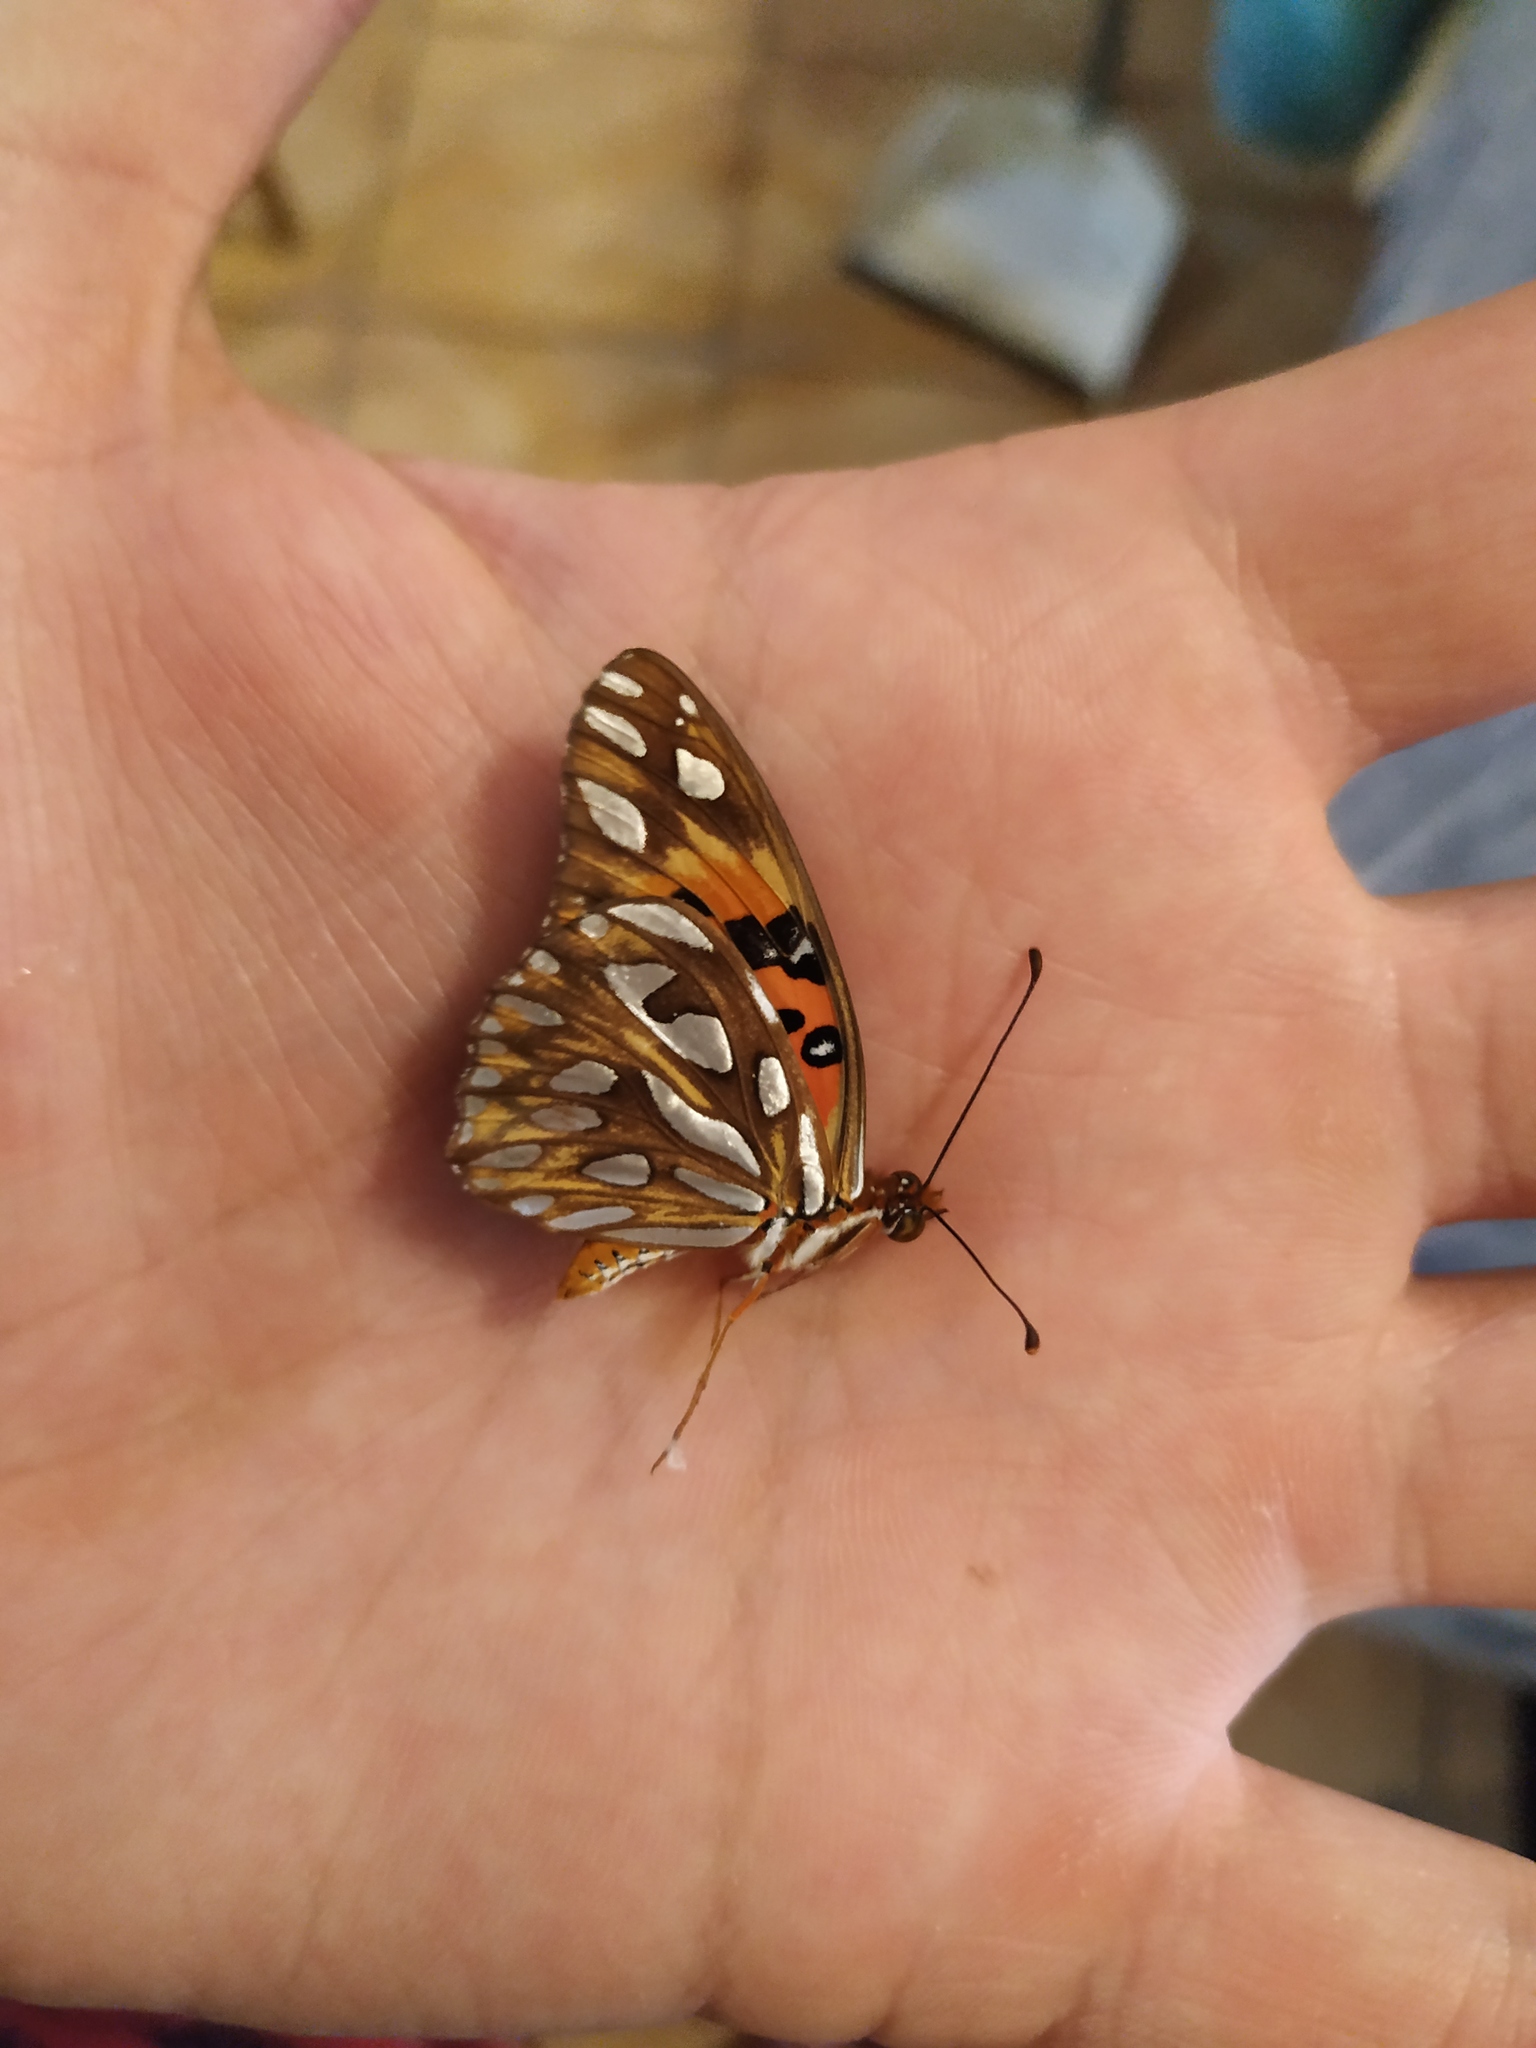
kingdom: Animalia
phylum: Arthropoda
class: Insecta
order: Lepidoptera
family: Nymphalidae
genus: Dione
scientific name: Dione vanillae
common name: Gulf fritillary
